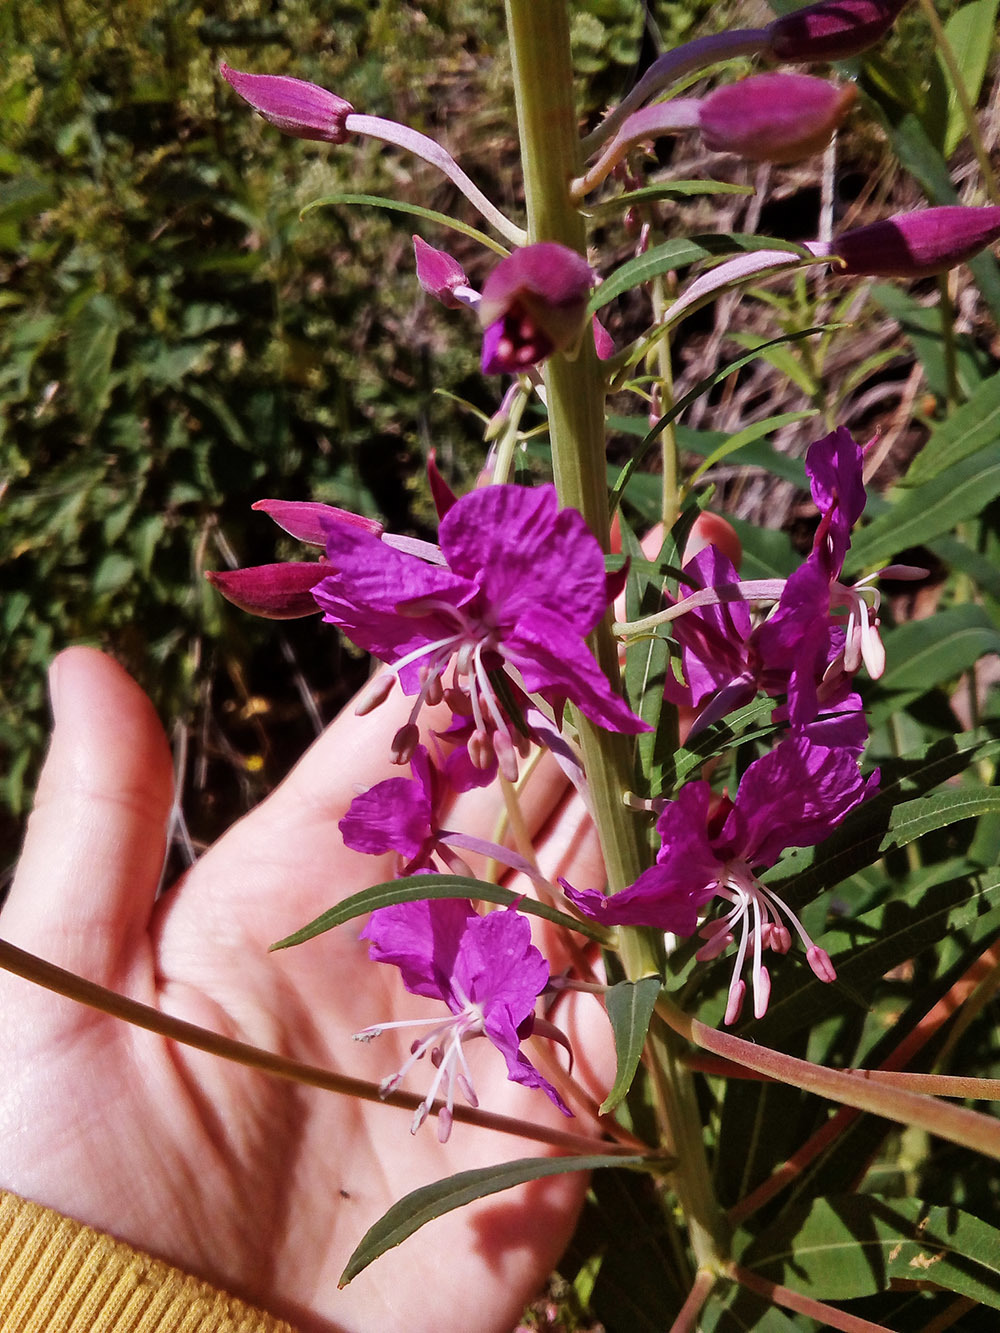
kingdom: Plantae
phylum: Tracheophyta
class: Magnoliopsida
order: Myrtales
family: Onagraceae
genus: Chamaenerion
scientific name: Chamaenerion angustifolium
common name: Fireweed
